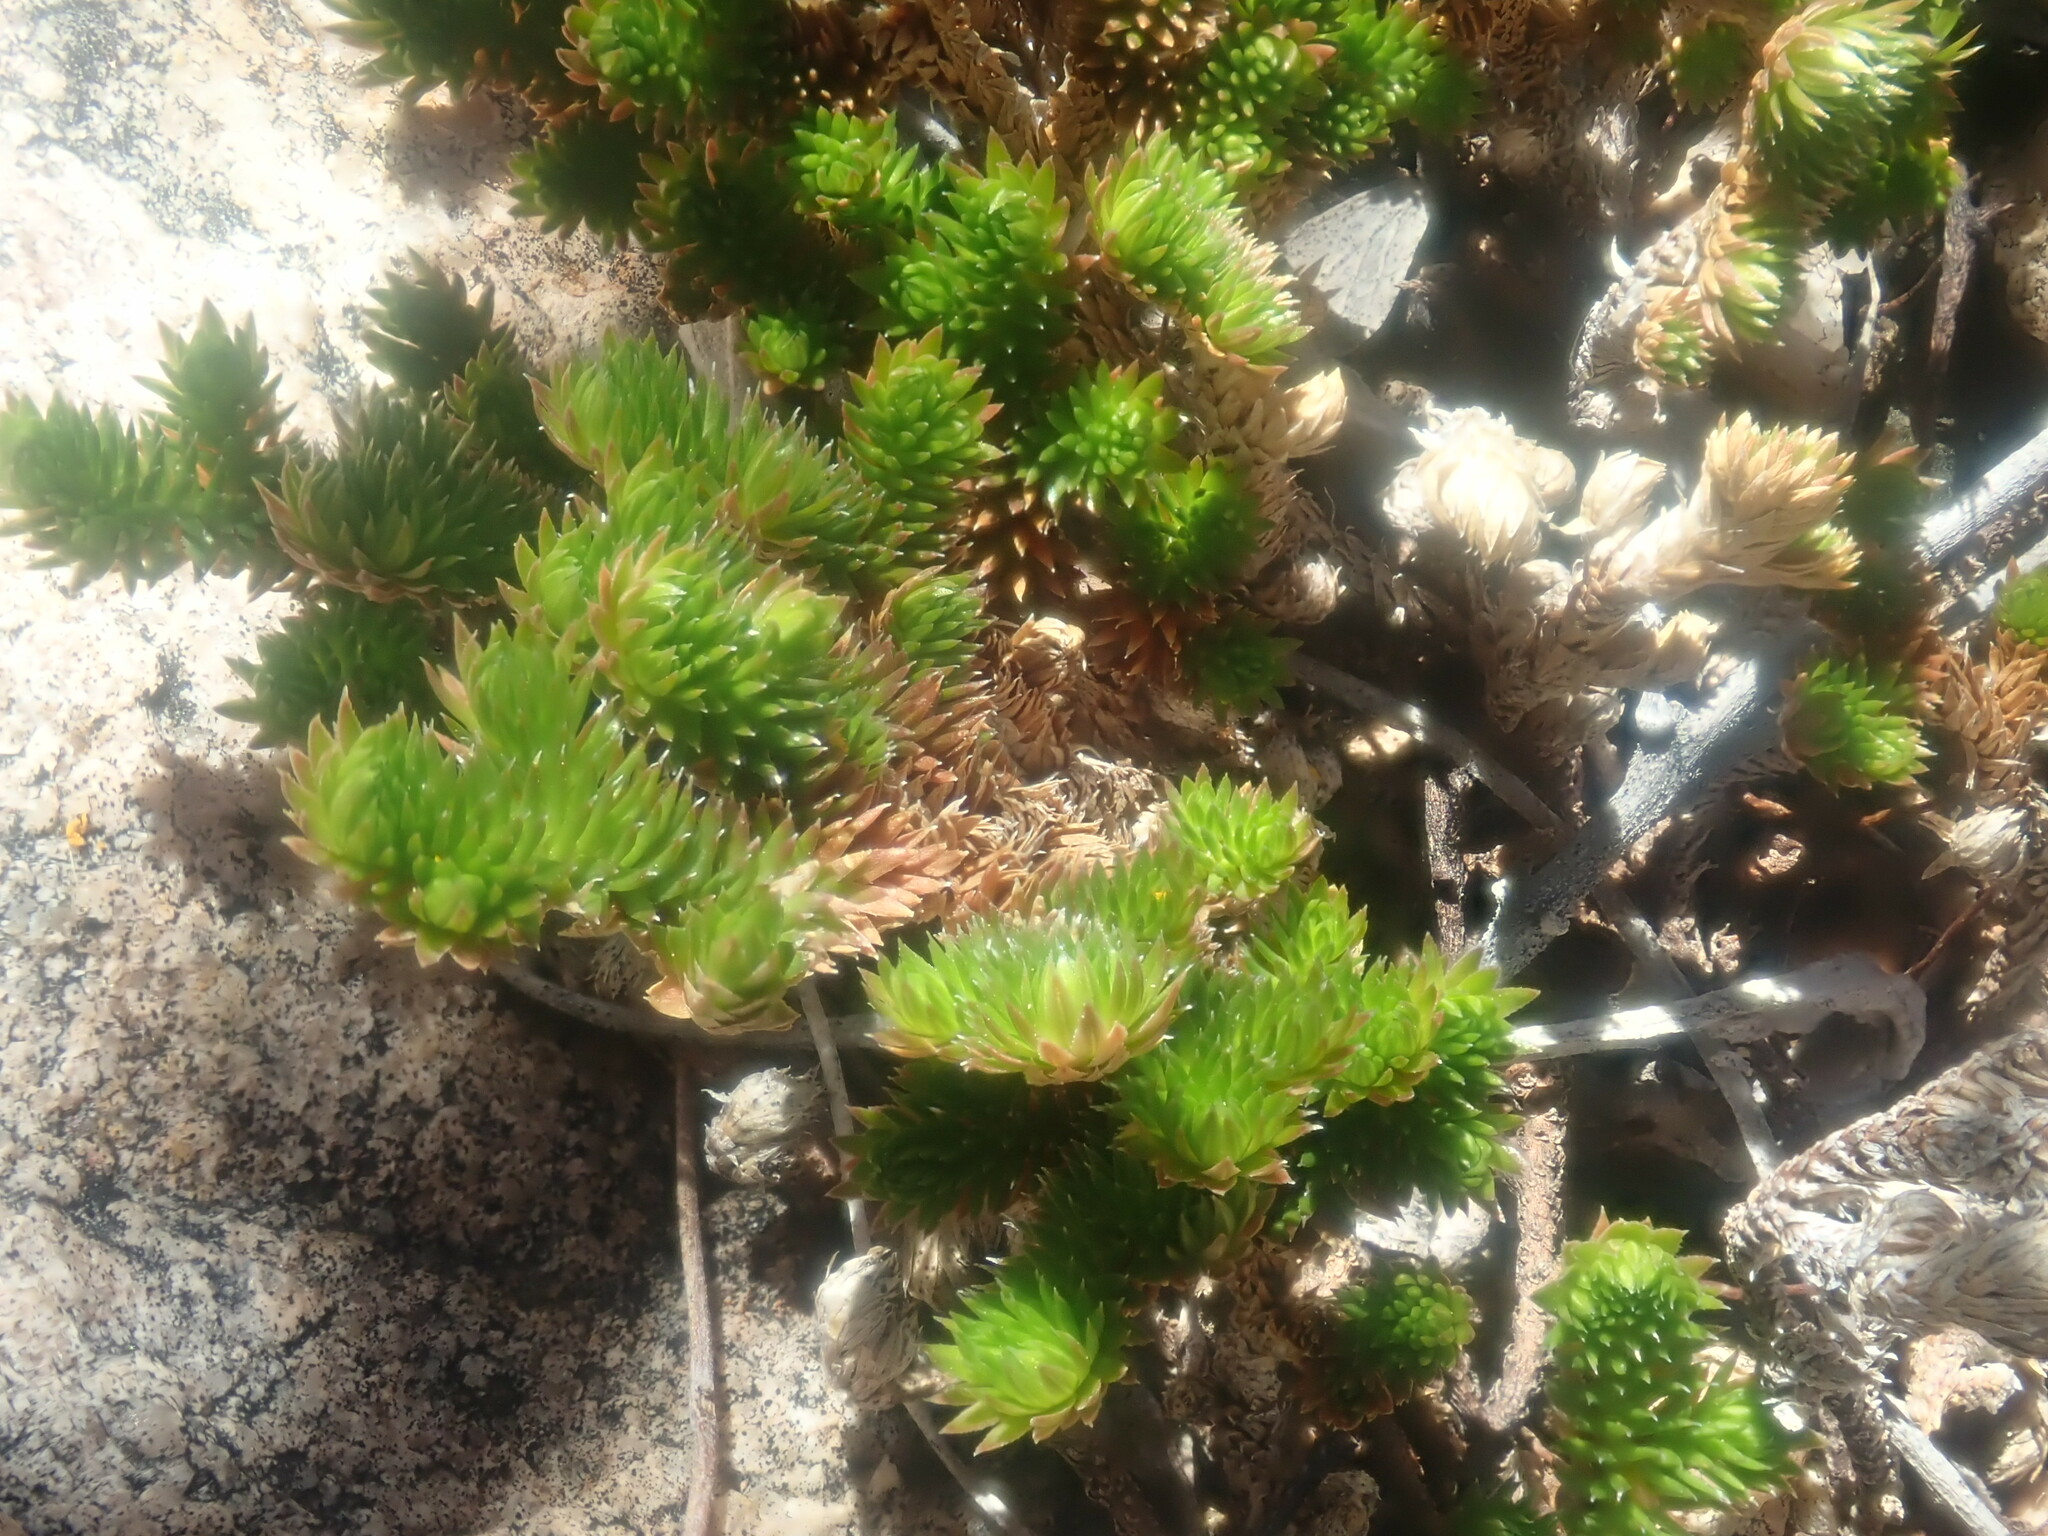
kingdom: Plantae
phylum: Tracheophyta
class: Lycopodiopsida
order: Selaginellales
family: Selaginellaceae
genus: Selaginella
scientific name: Selaginella arizonica
